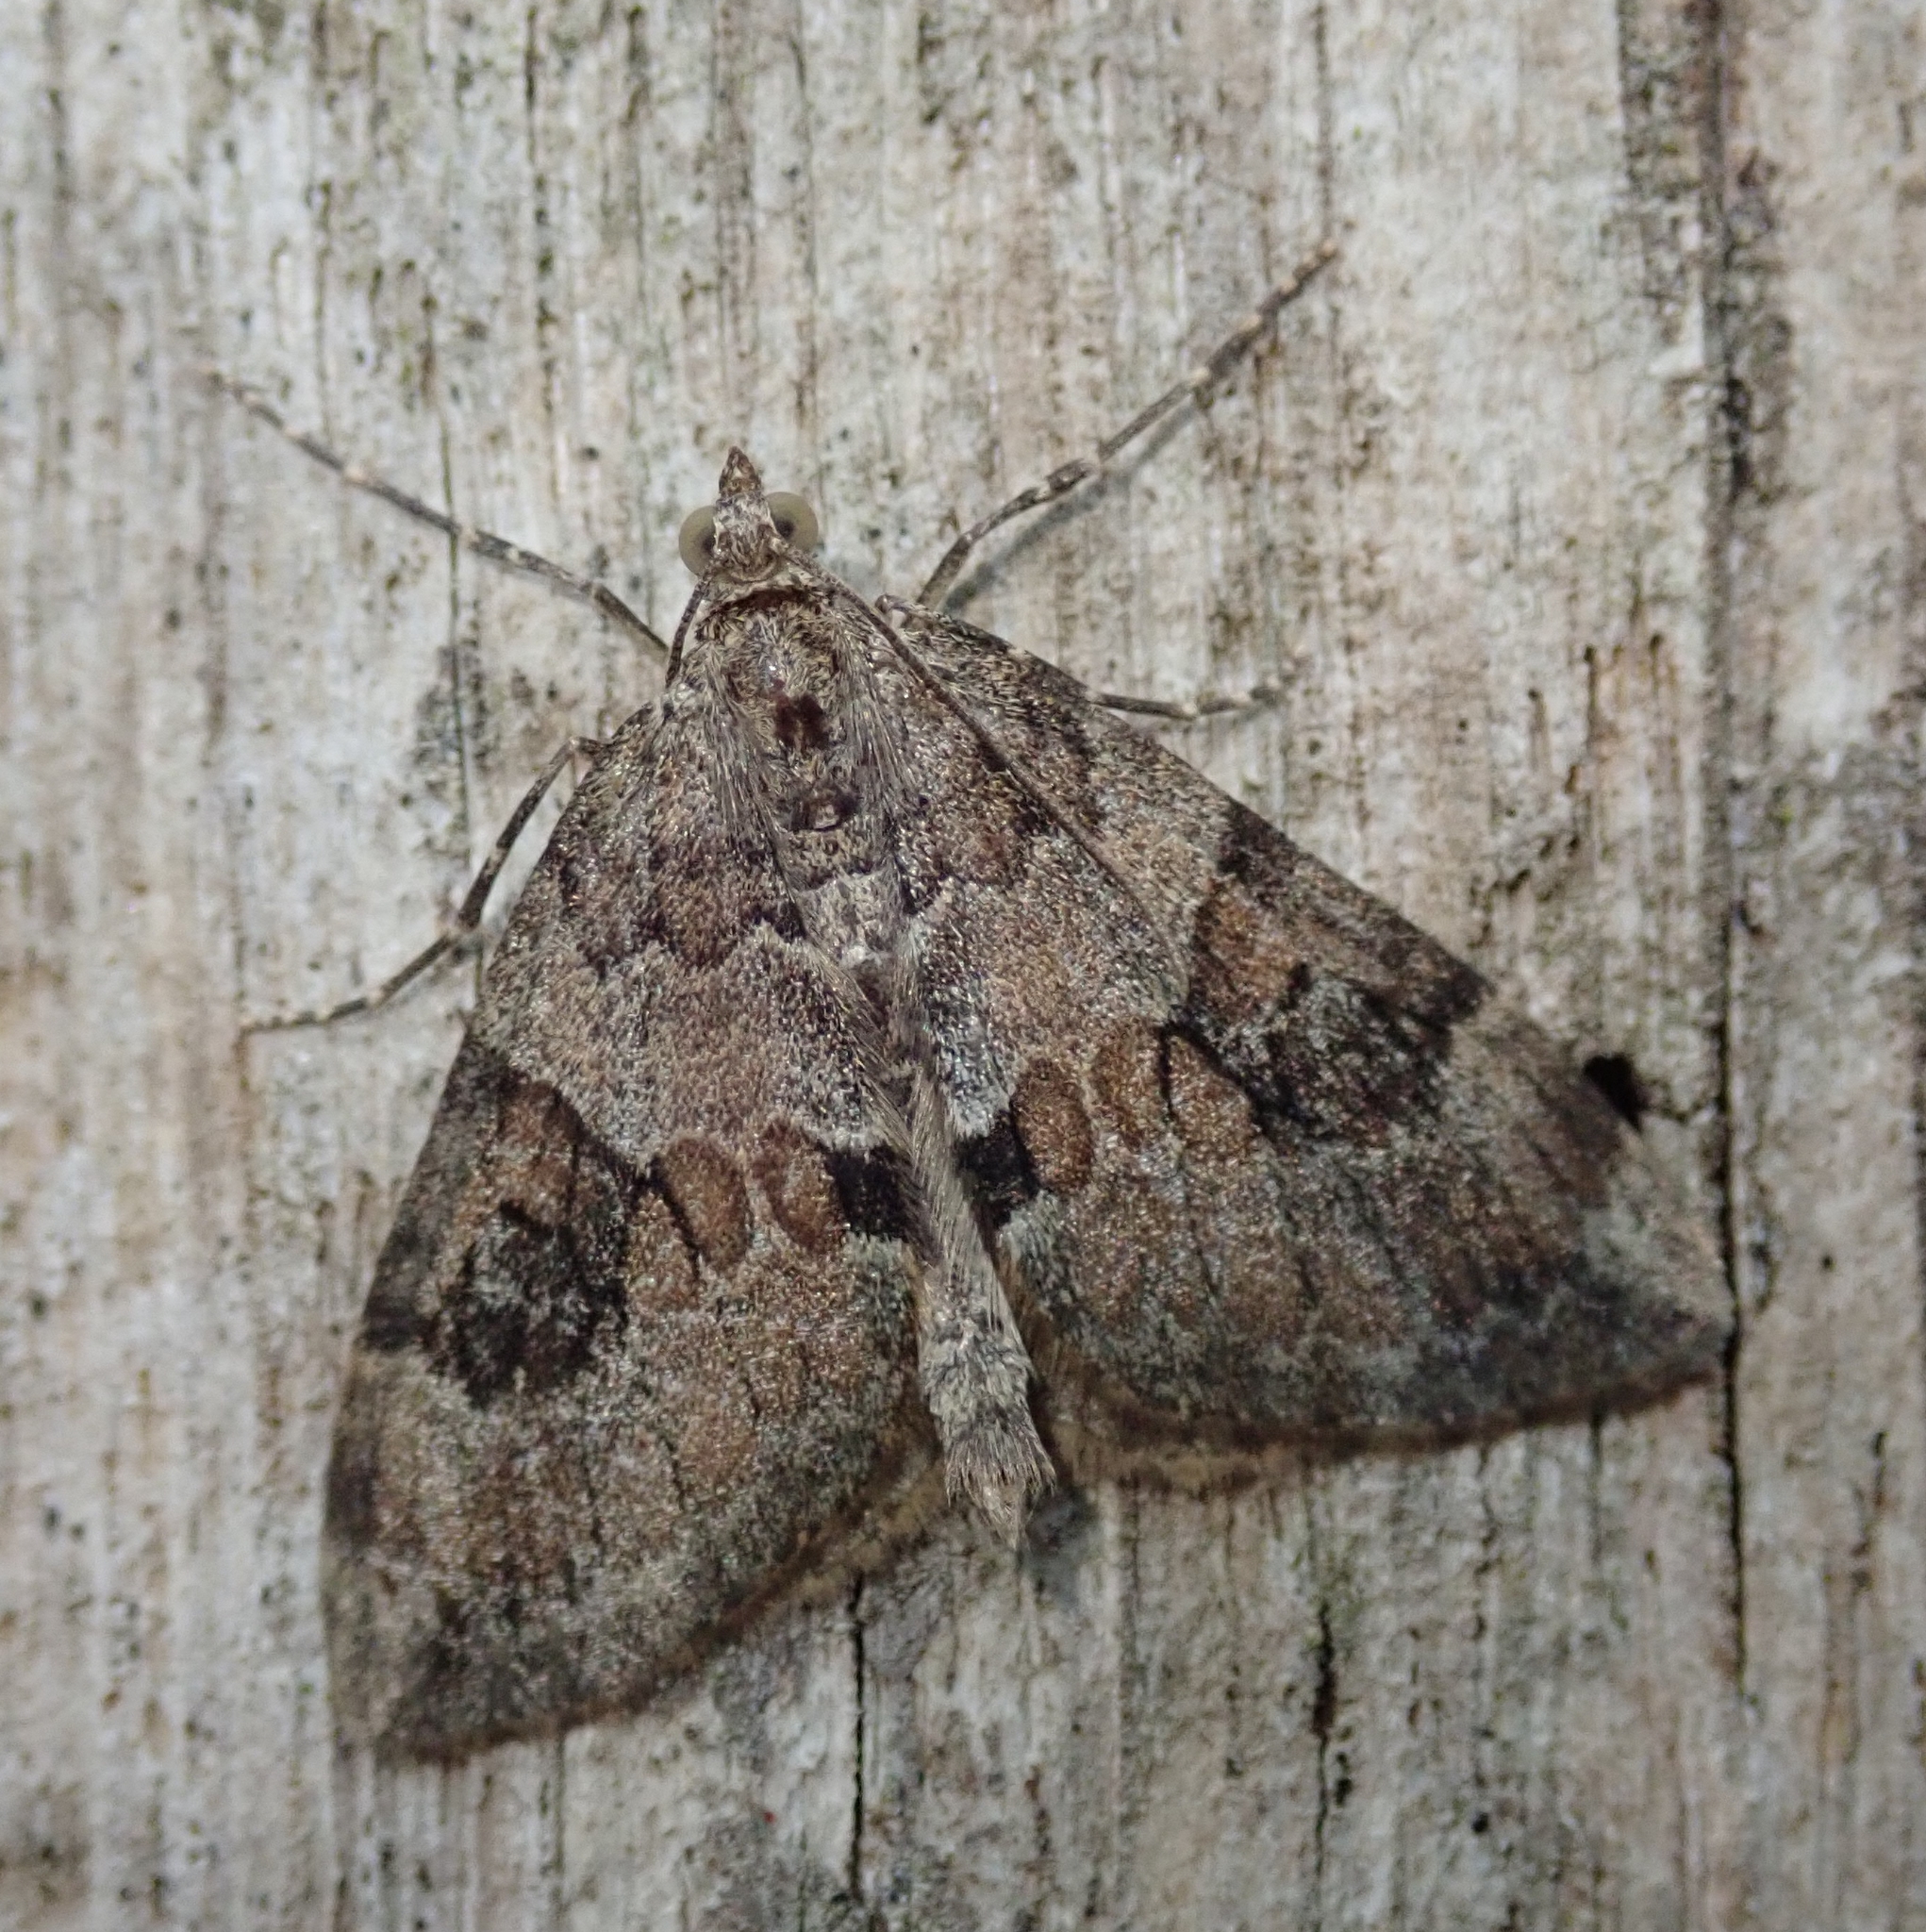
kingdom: Animalia
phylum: Arthropoda
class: Insecta
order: Lepidoptera
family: Geometridae
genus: Thera
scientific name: Thera obeliscata
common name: Grey pine carpet
